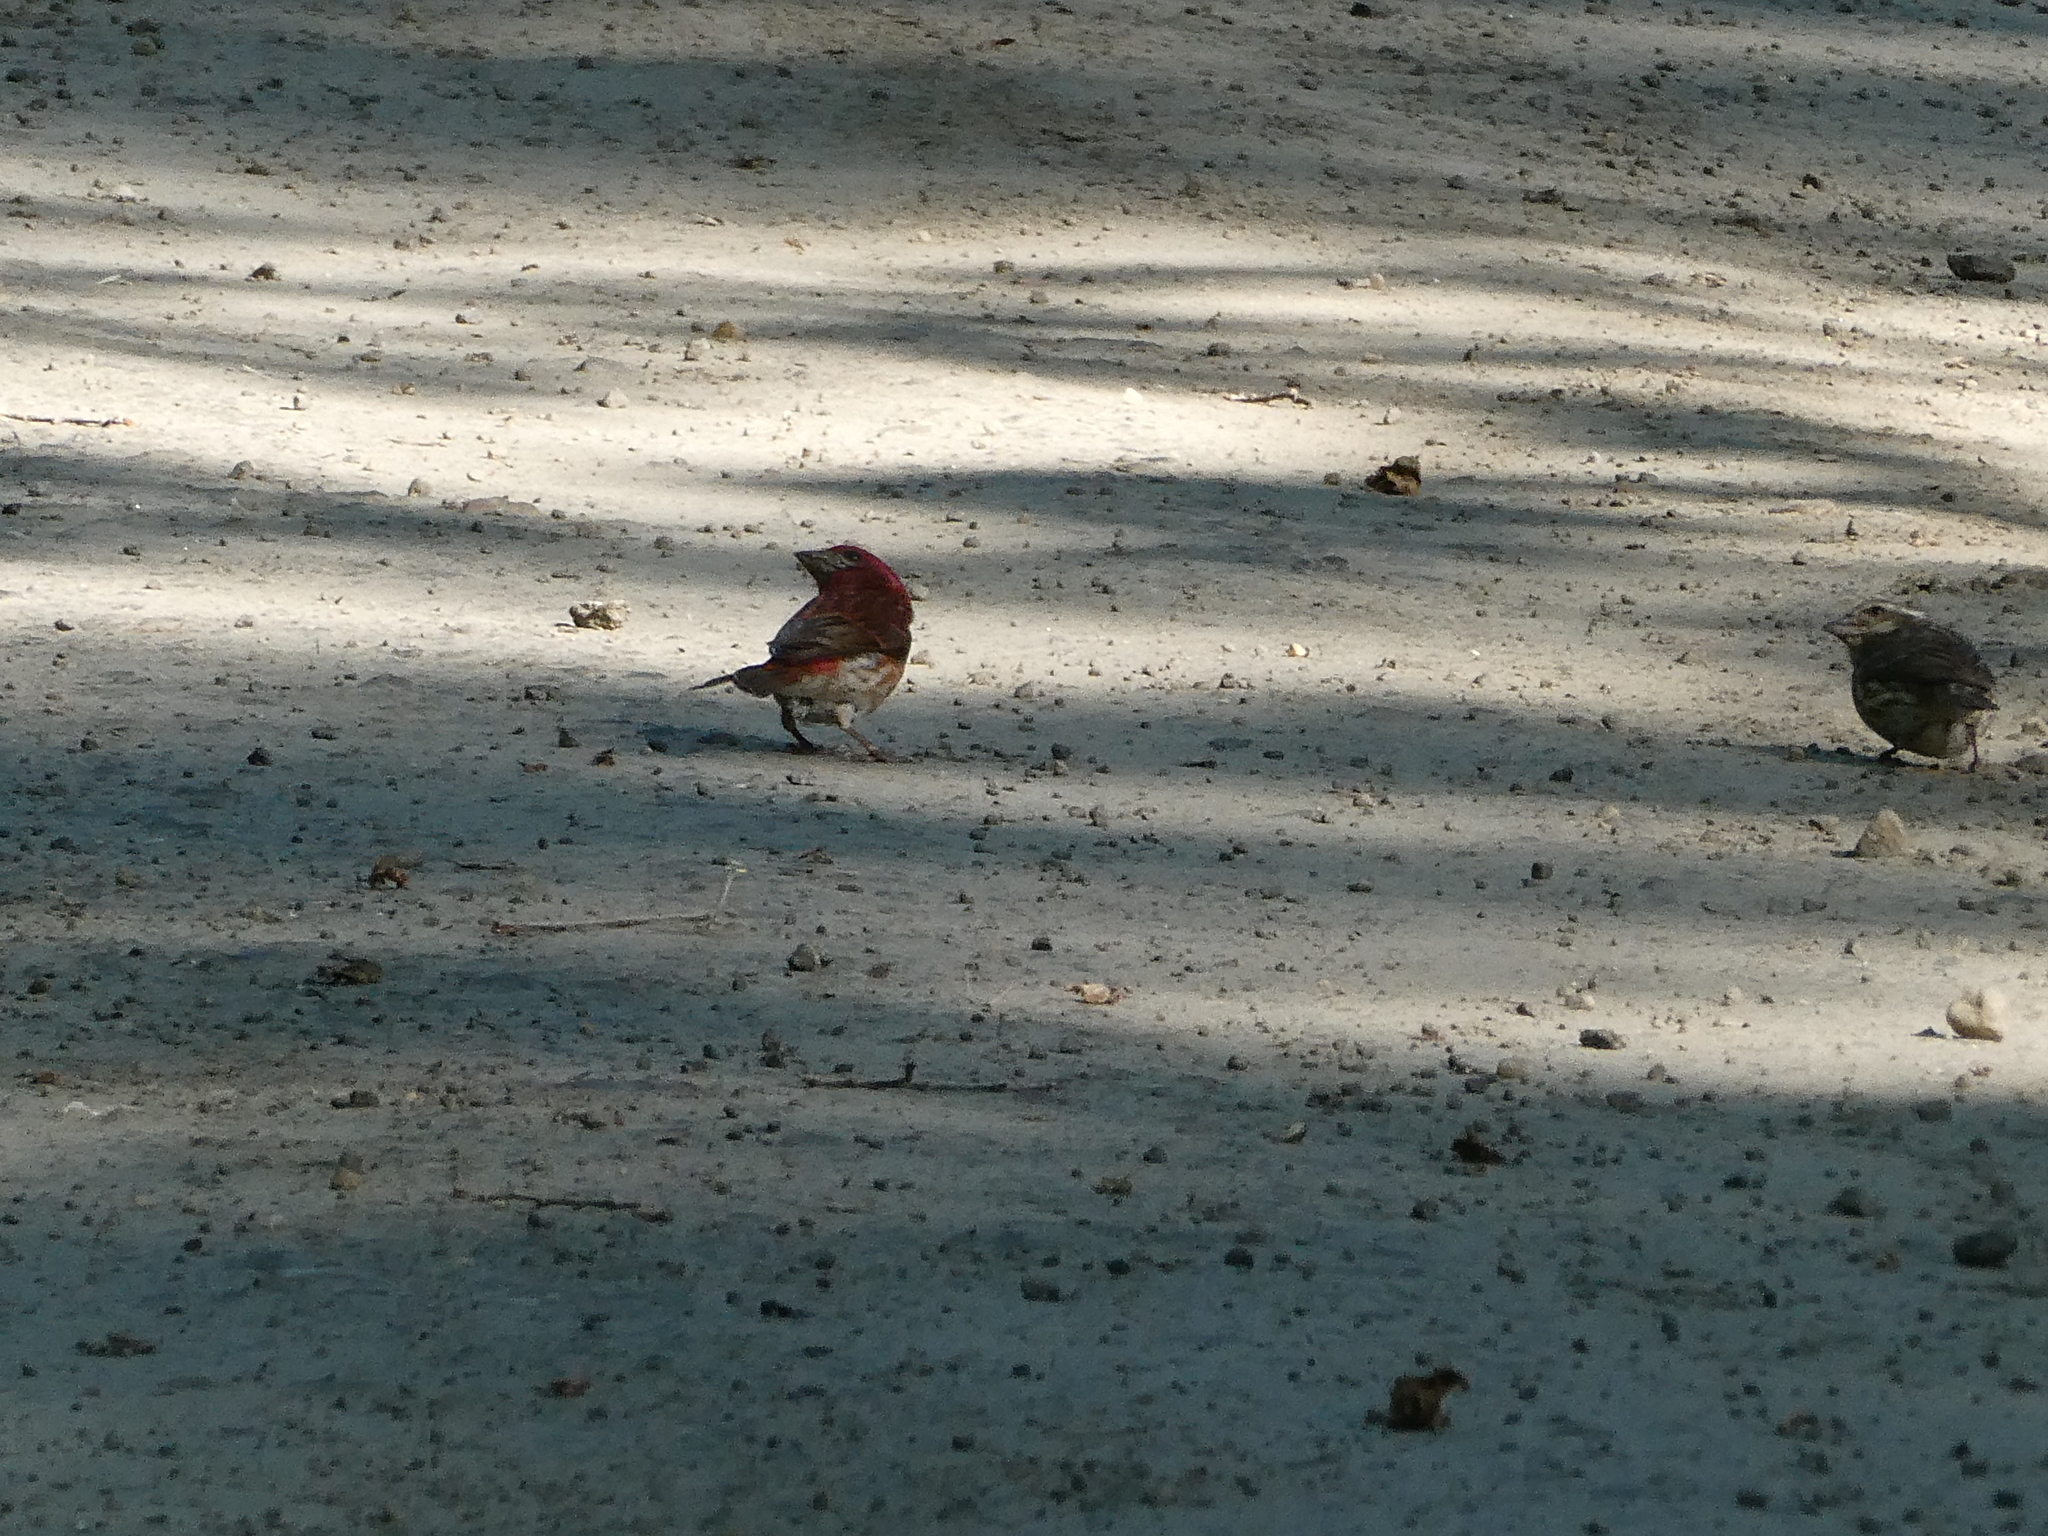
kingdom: Animalia
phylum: Chordata
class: Aves
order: Passeriformes
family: Fringillidae
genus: Haemorhous
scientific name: Haemorhous purpureus
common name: Purple finch
